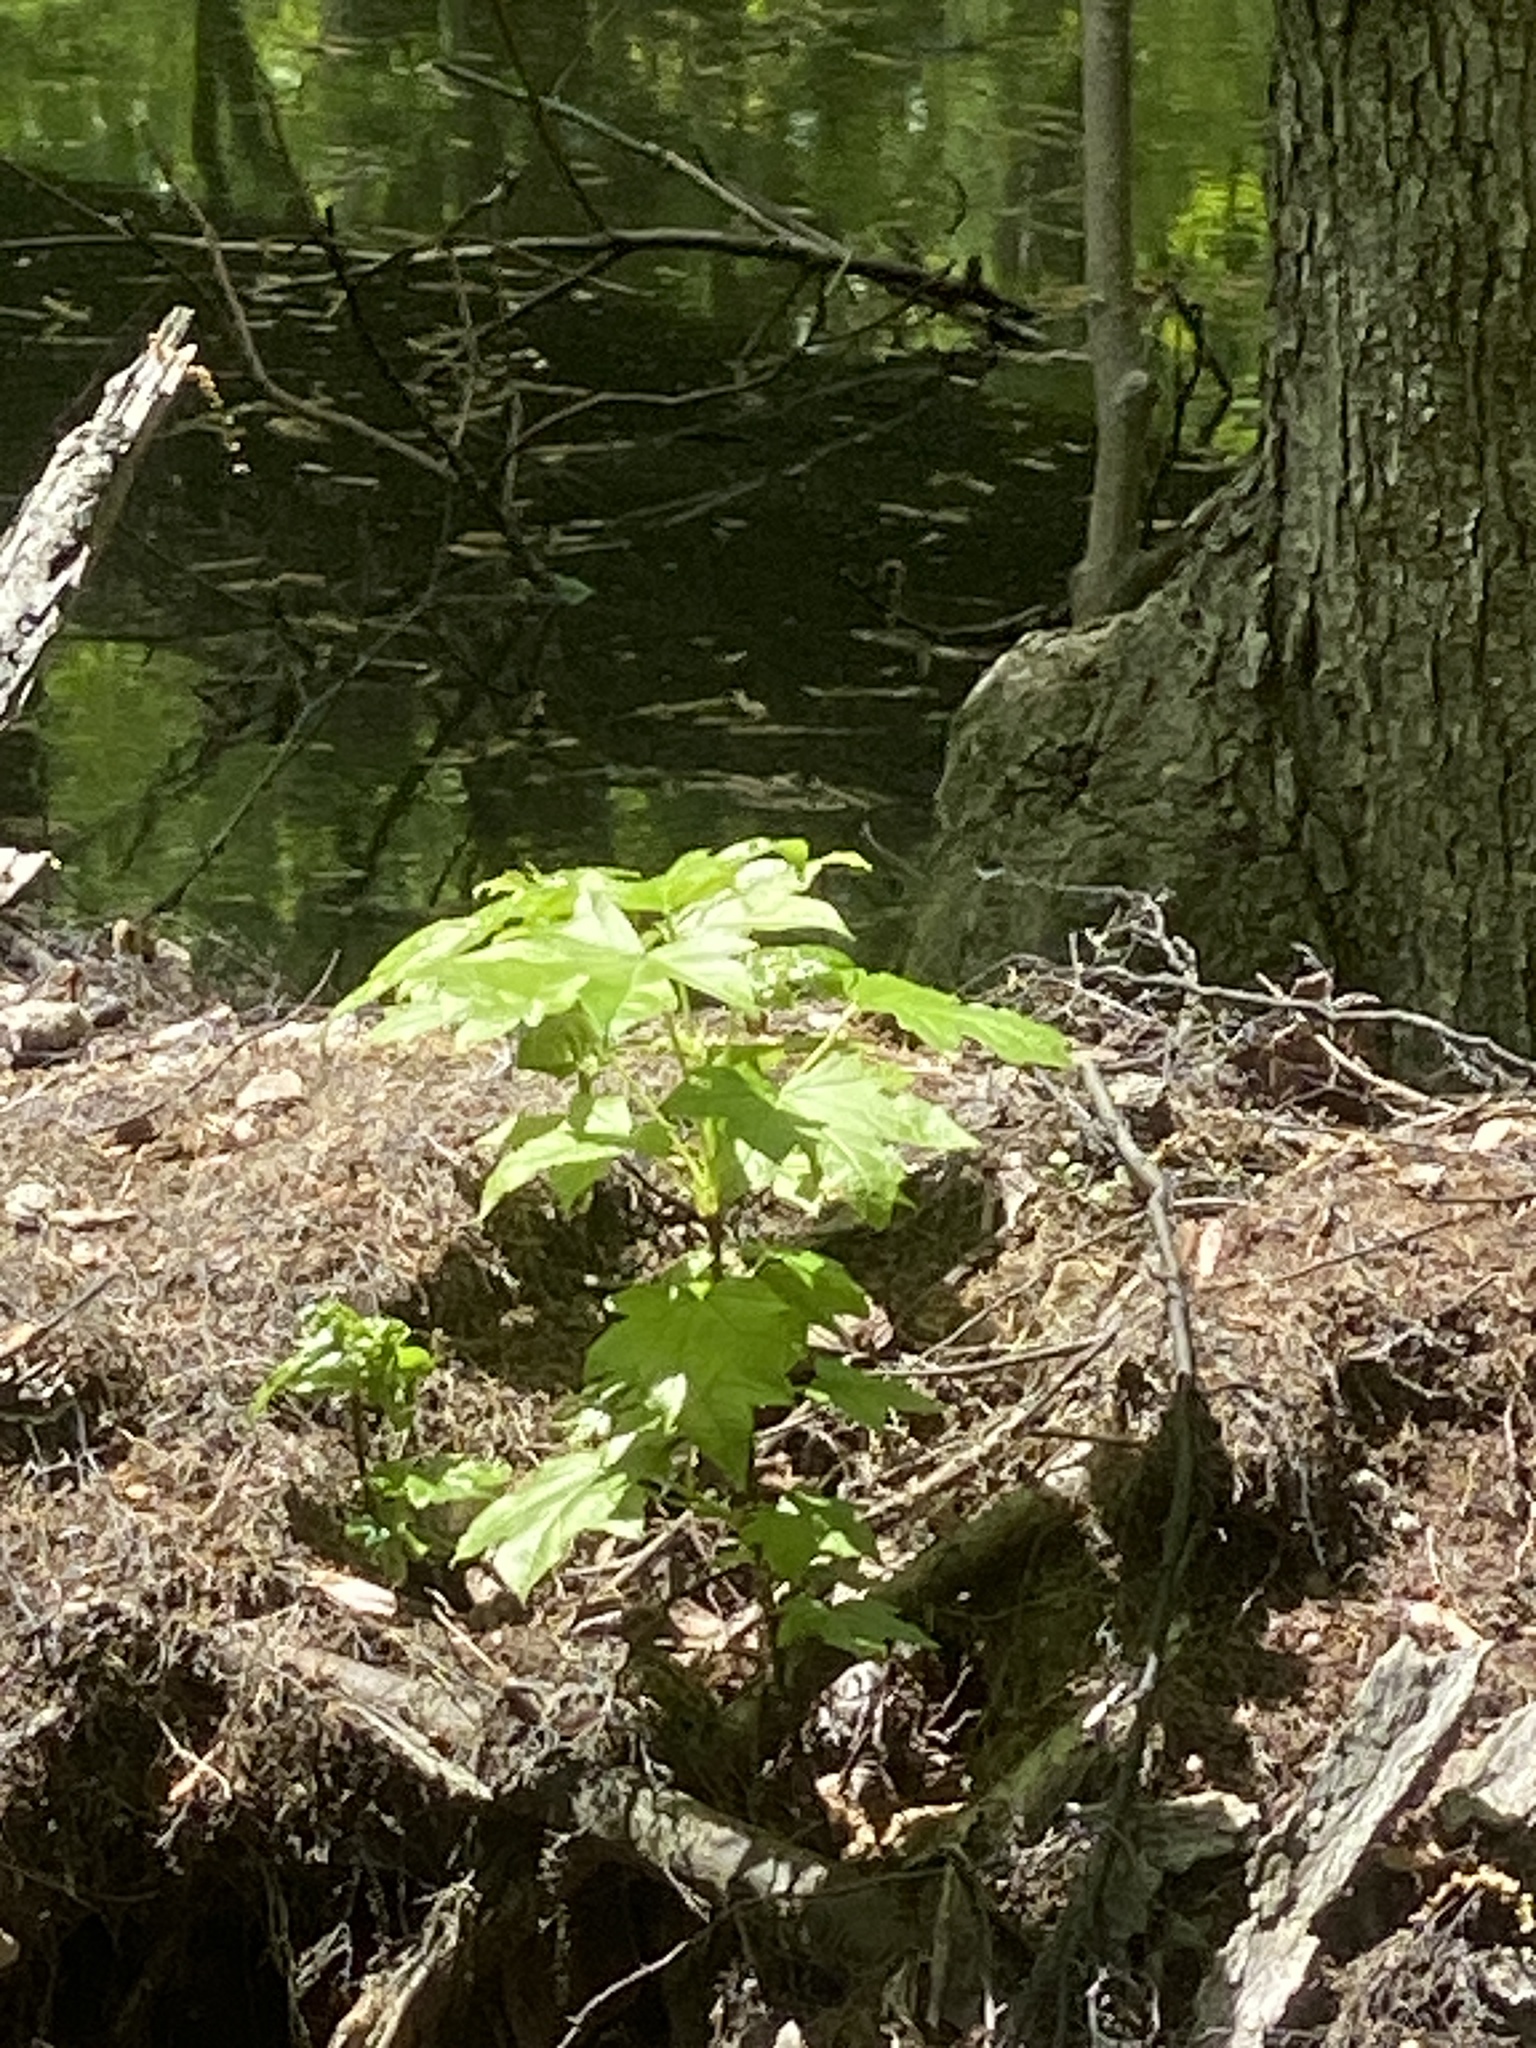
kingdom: Plantae
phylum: Tracheophyta
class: Magnoliopsida
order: Saxifragales
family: Altingiaceae
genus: Liquidambar
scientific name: Liquidambar styraciflua
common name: Sweet gum
